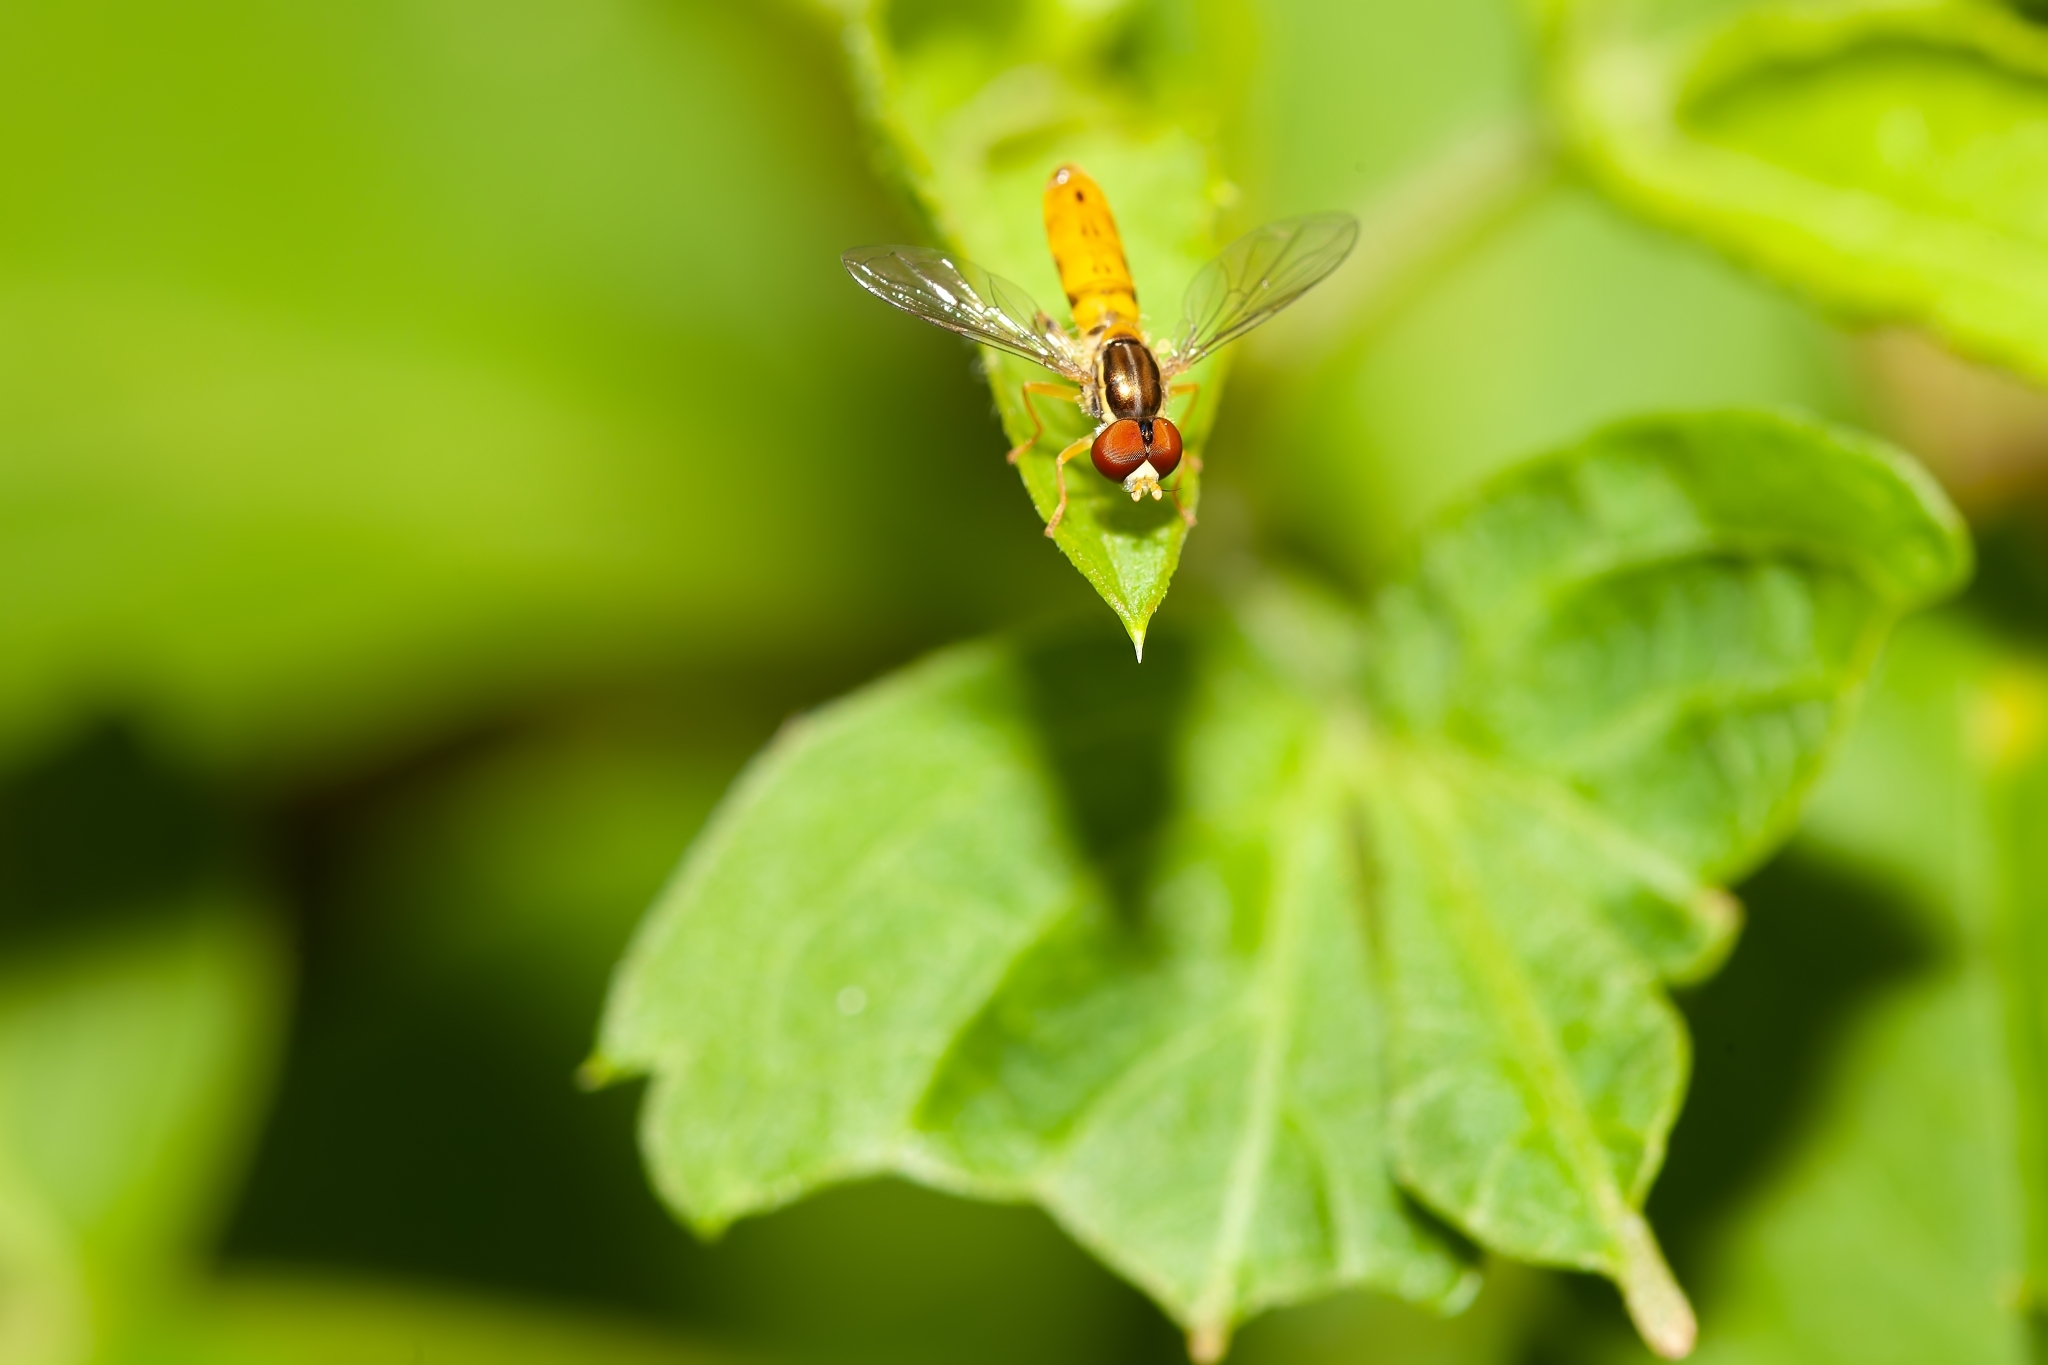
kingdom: Animalia
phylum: Arthropoda
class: Insecta
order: Diptera
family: Syrphidae
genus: Toxomerus
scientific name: Toxomerus floralis
